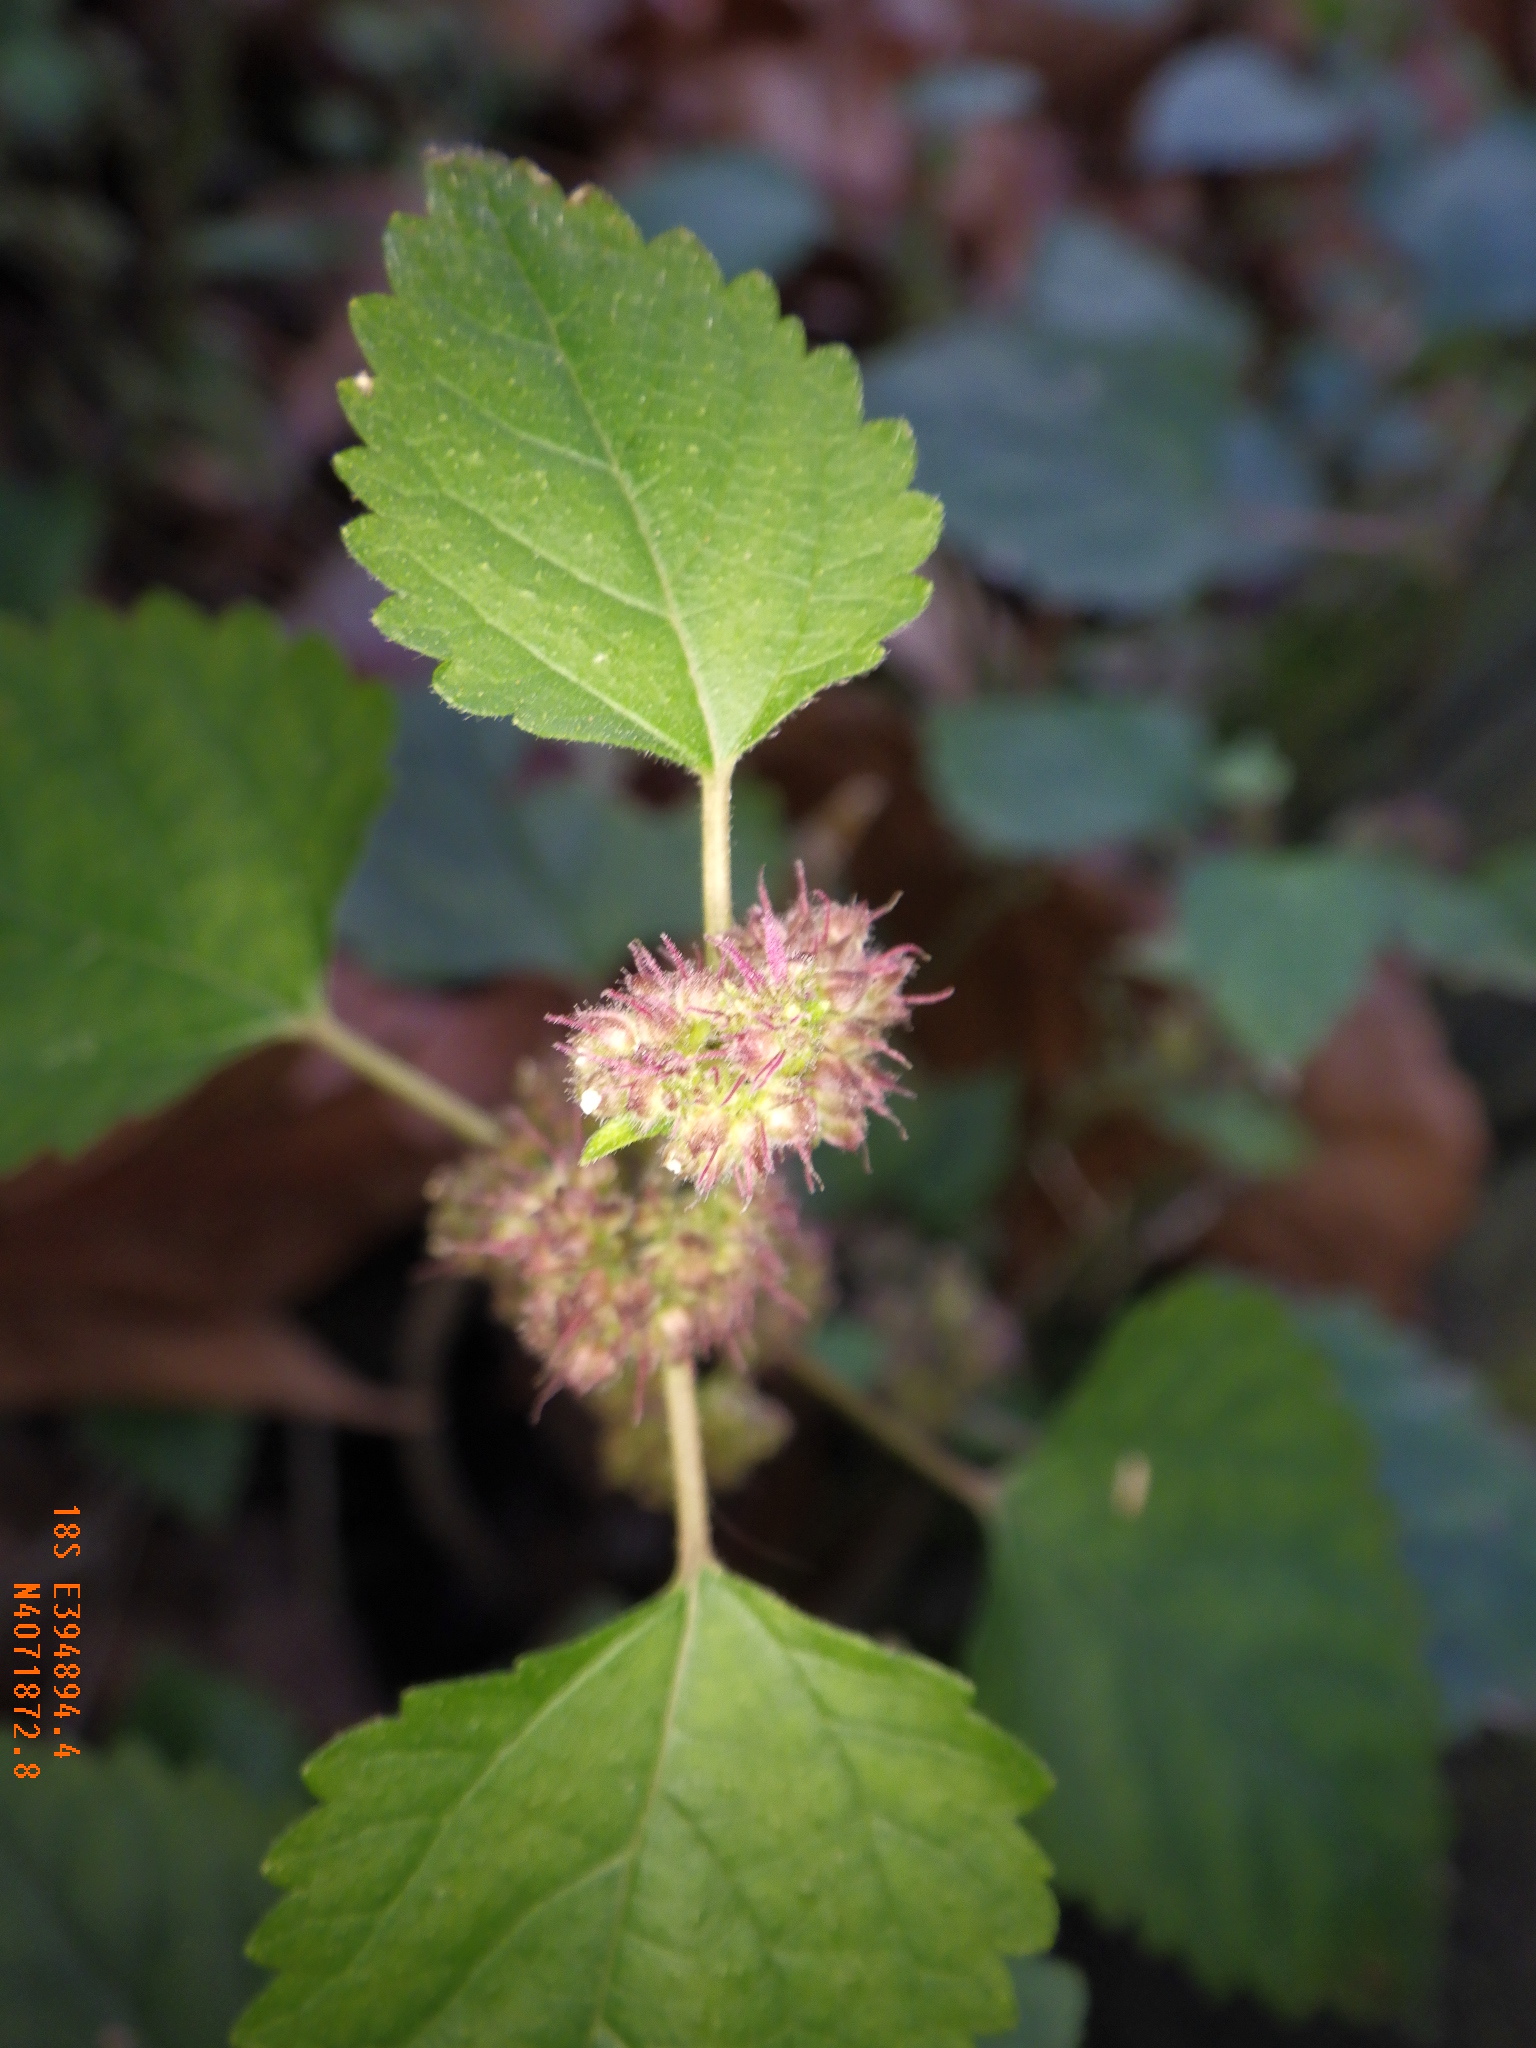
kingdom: Plantae
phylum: Tracheophyta
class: Magnoliopsida
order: Rosales
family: Moraceae
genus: Fatoua
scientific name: Fatoua villosa
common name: Hairy crabweed
